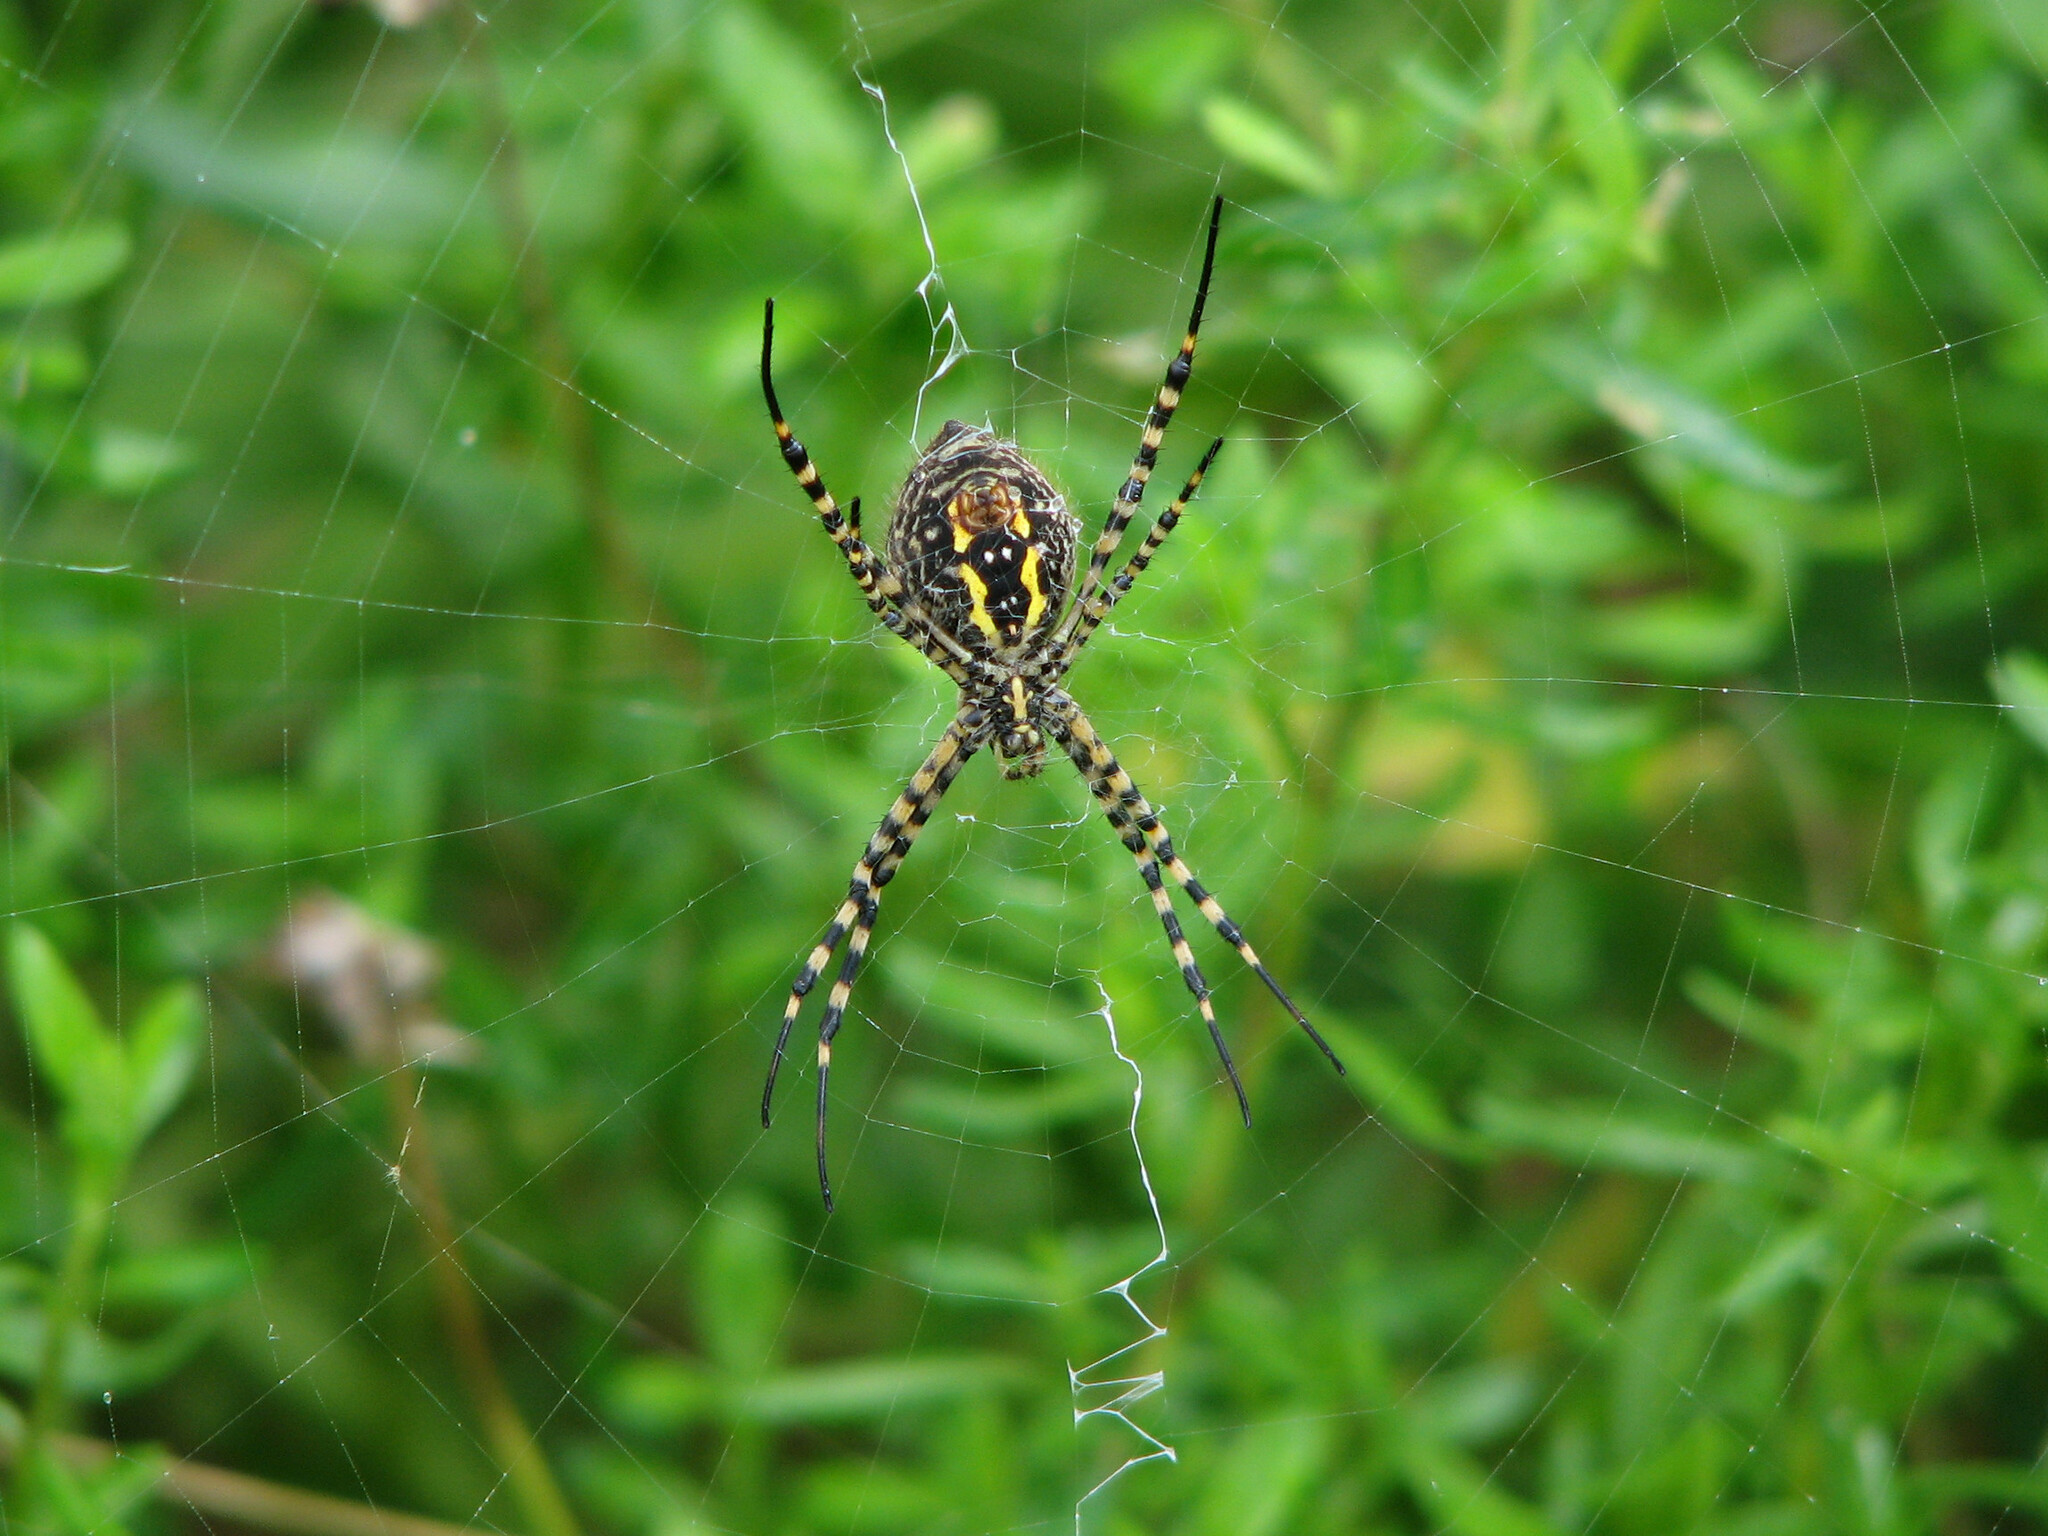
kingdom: Animalia
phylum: Arthropoda
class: Arachnida
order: Araneae
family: Araneidae
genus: Argiope
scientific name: Argiope trifasciata
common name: Banded garden spider
